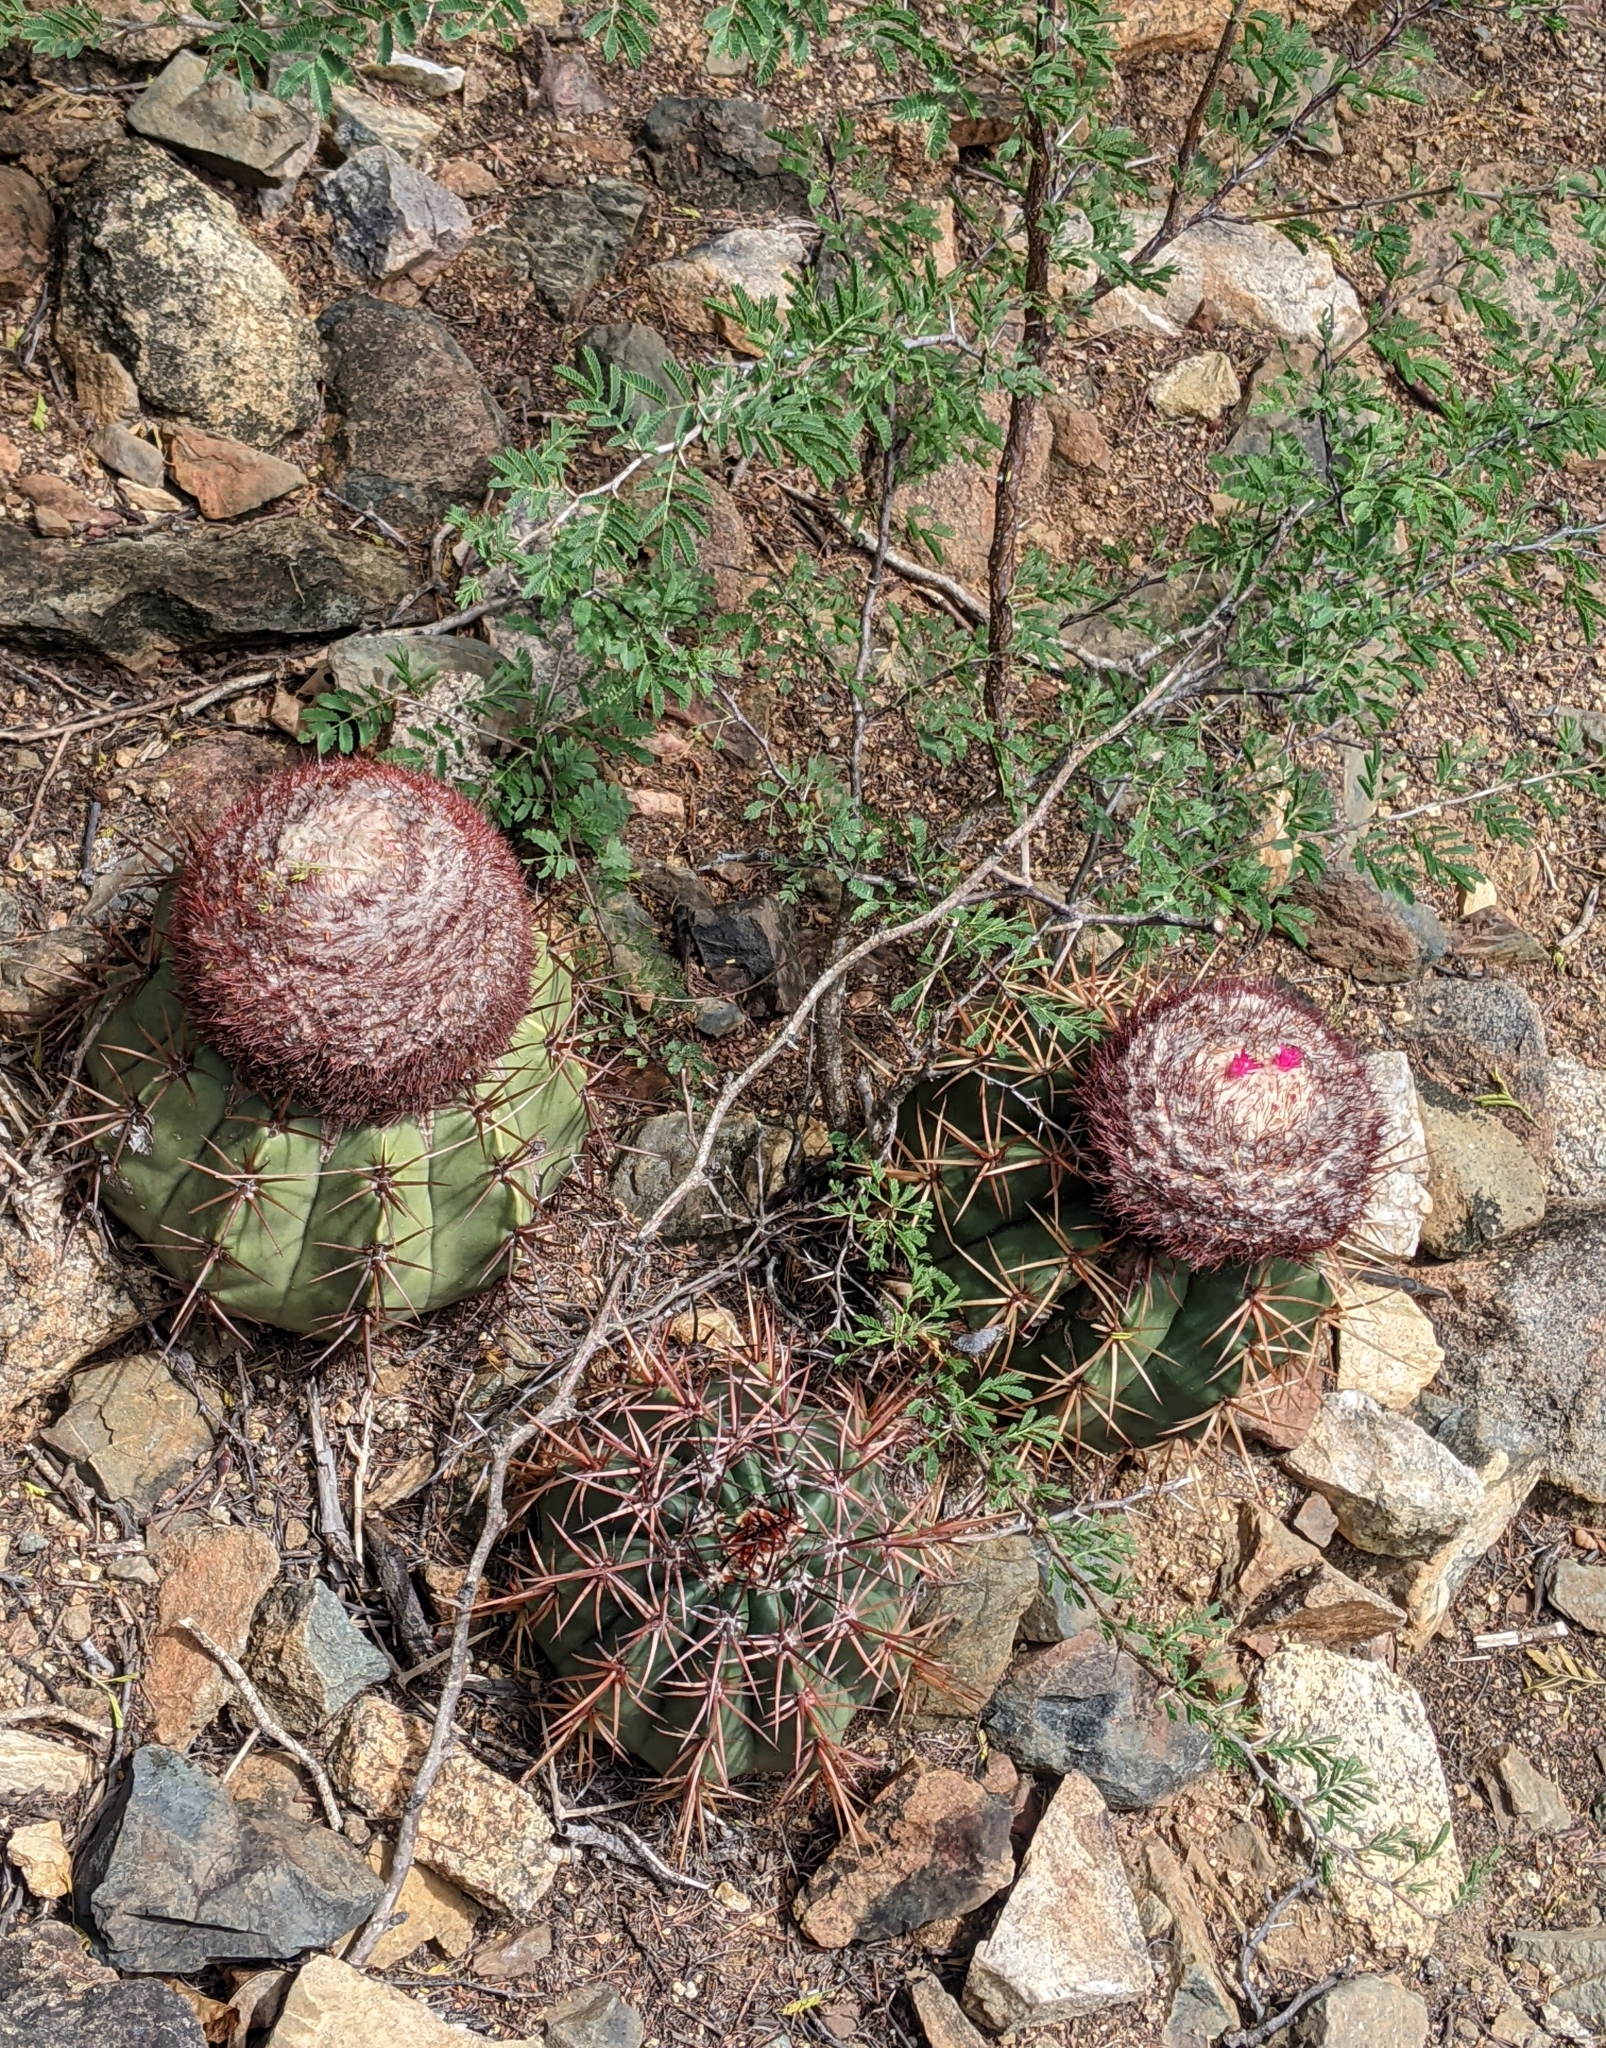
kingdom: Plantae
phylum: Tracheophyta
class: Magnoliopsida
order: Caryophyllales
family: Cactaceae
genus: Melocactus
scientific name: Melocactus macracanthos
